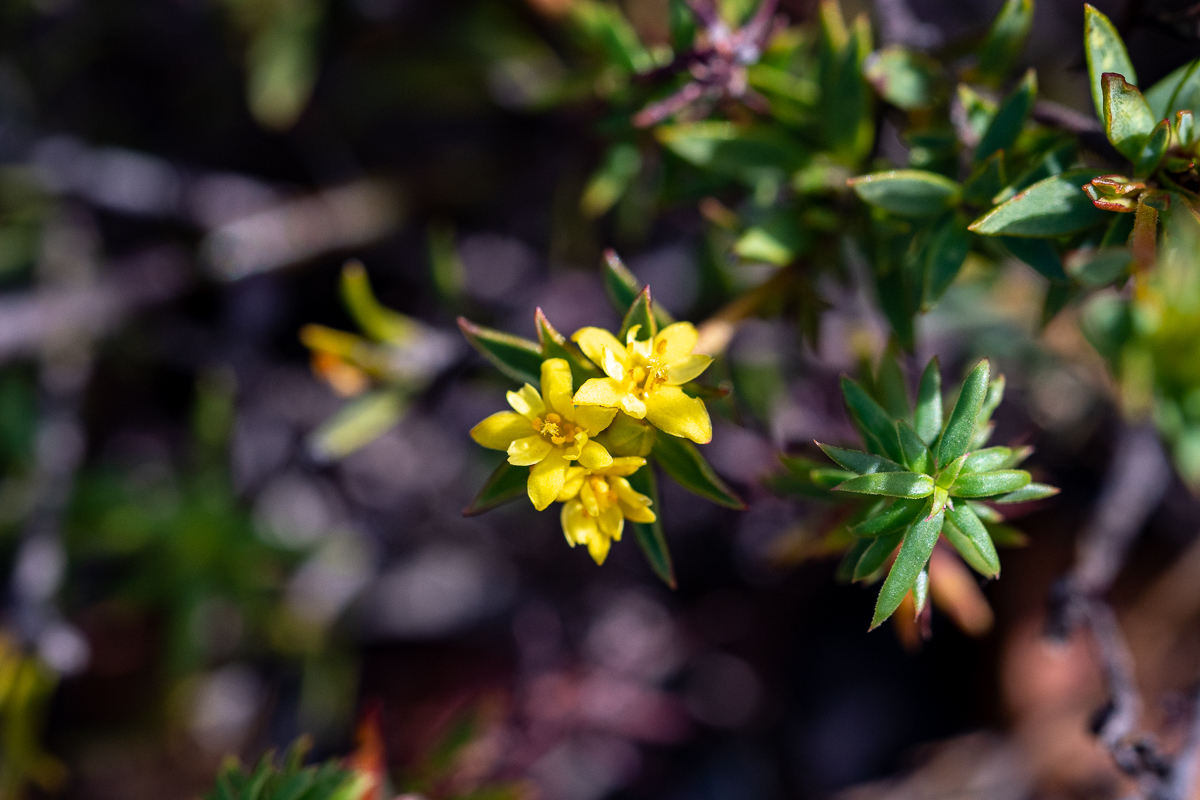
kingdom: Plantae
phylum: Tracheophyta
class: Magnoliopsida
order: Malvales
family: Thymelaeaceae
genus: Gnidia
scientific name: Gnidia juniperifolia
